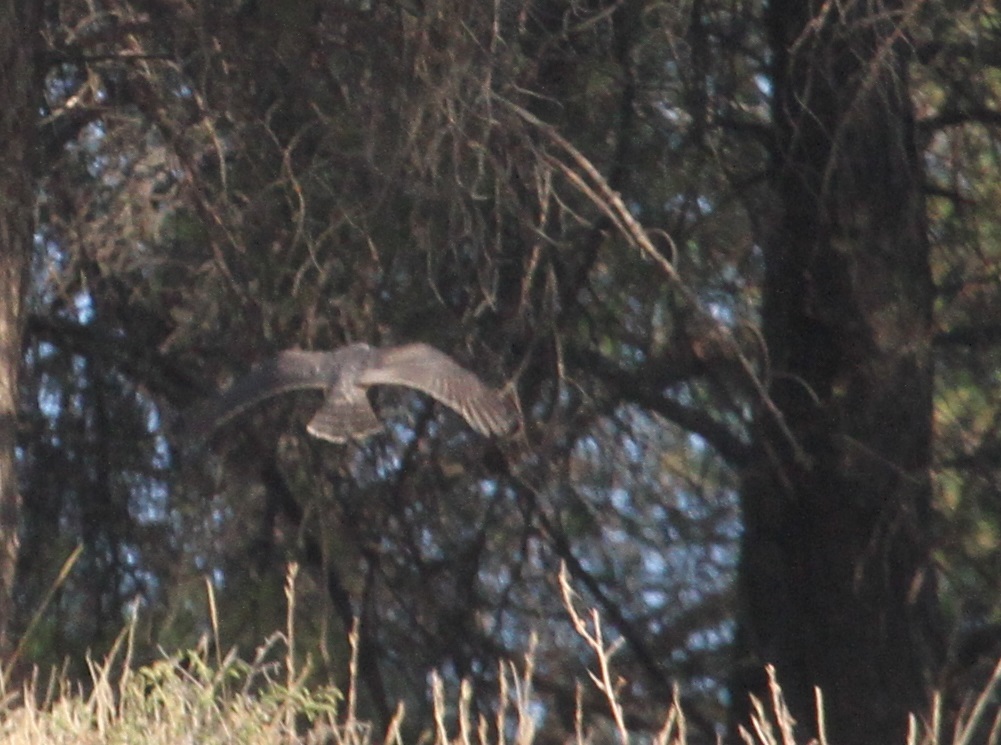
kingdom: Animalia
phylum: Chordata
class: Aves
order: Accipitriformes
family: Accipitridae
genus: Accipiter
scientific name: Accipiter nisus
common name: Eurasian sparrowhawk
